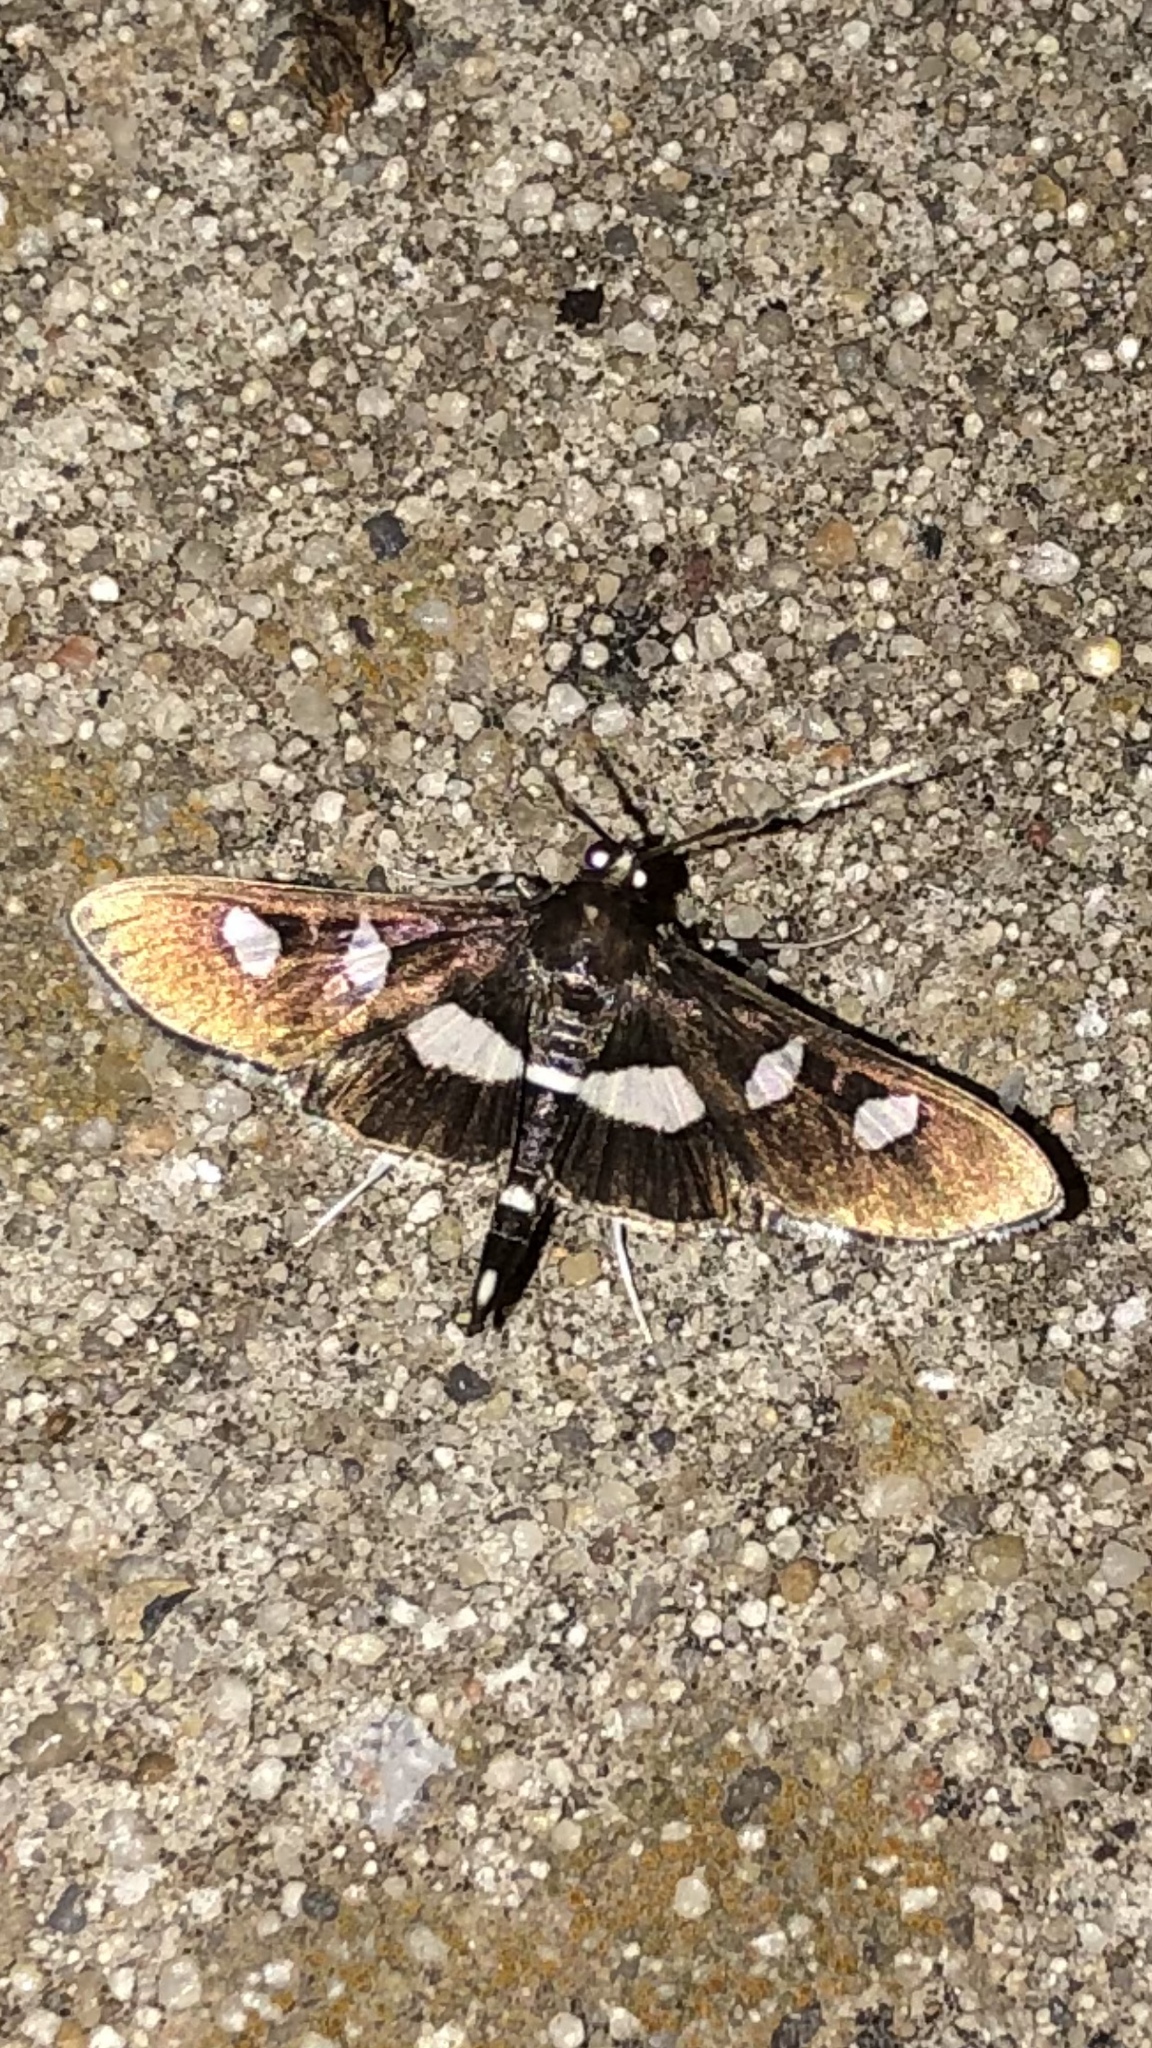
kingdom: Animalia
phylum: Arthropoda
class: Insecta
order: Lepidoptera
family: Crambidae
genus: Desmia
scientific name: Desmia
